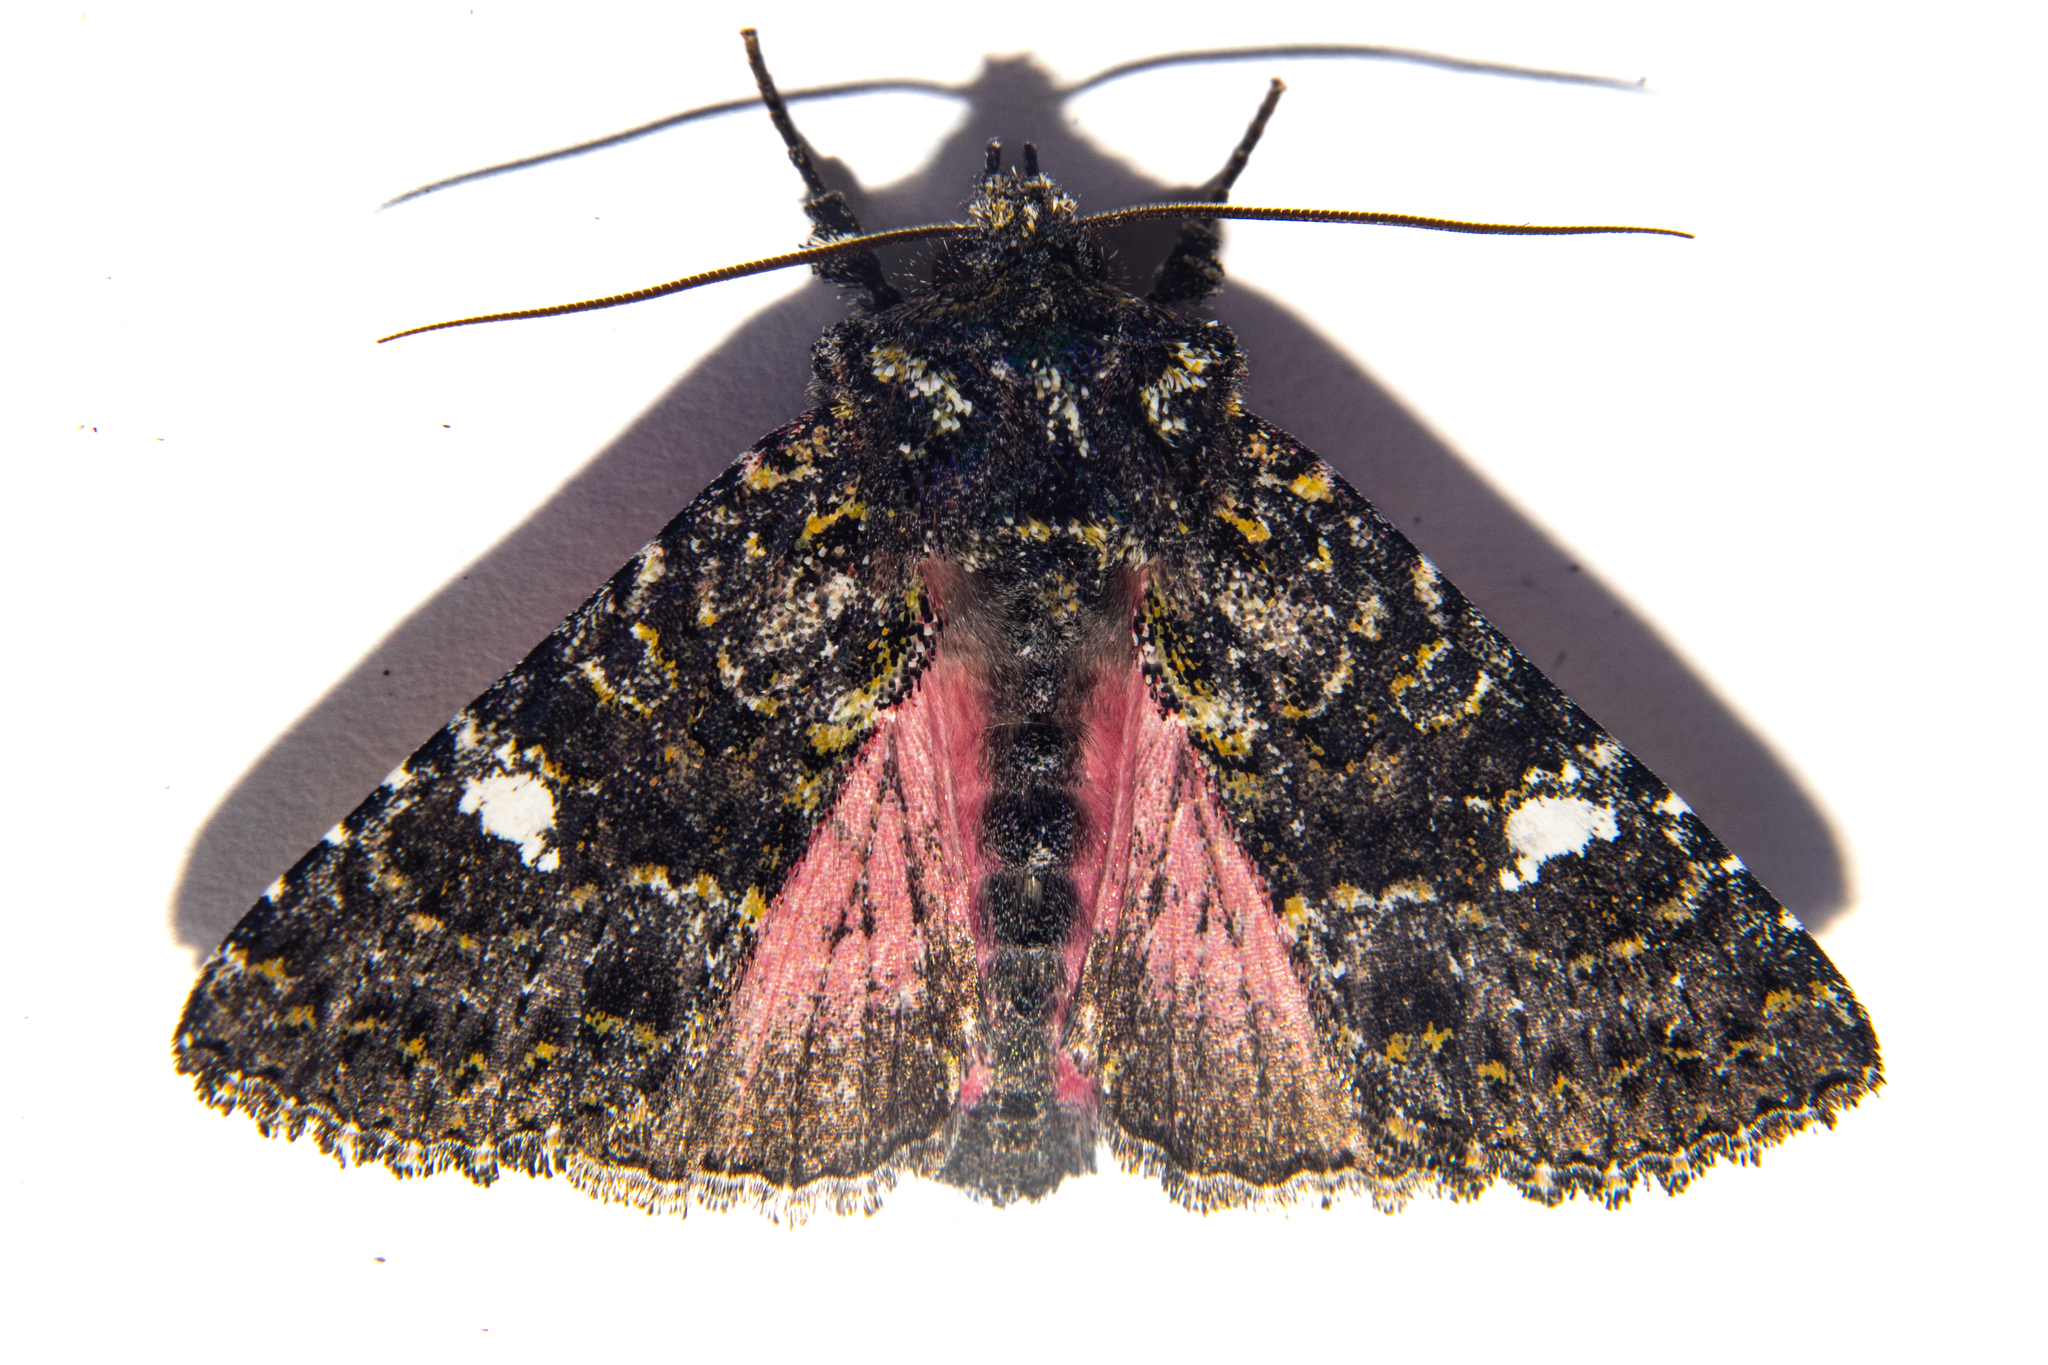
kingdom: Animalia
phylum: Arthropoda
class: Insecta
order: Lepidoptera
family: Noctuidae
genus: Meterana
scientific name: Meterana meyricci
